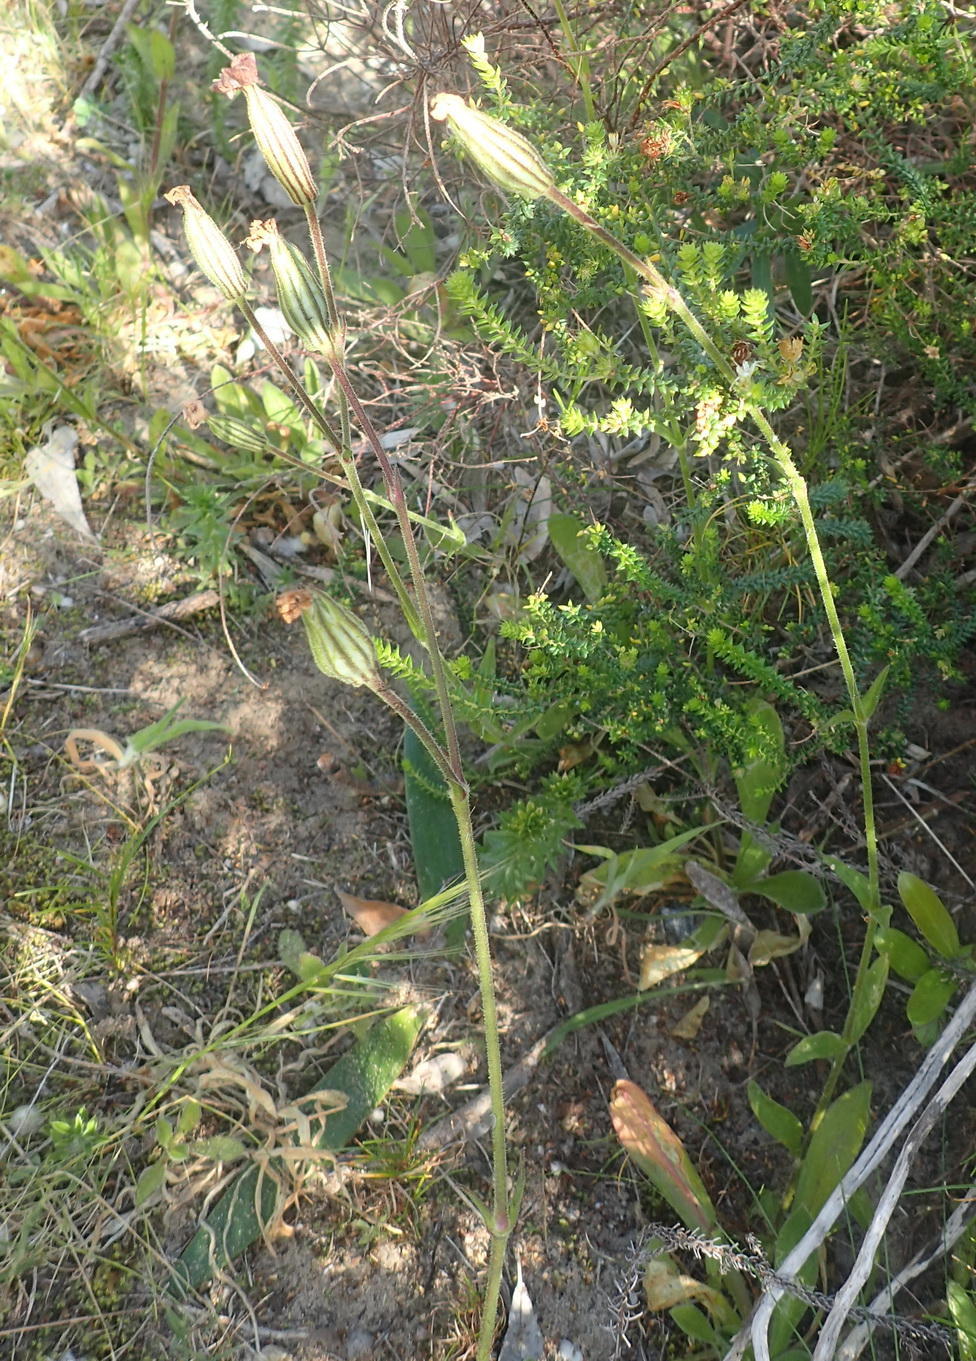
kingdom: Plantae
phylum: Tracheophyta
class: Magnoliopsida
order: Caryophyllales
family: Caryophyllaceae
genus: Silene
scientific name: Silene undulata
